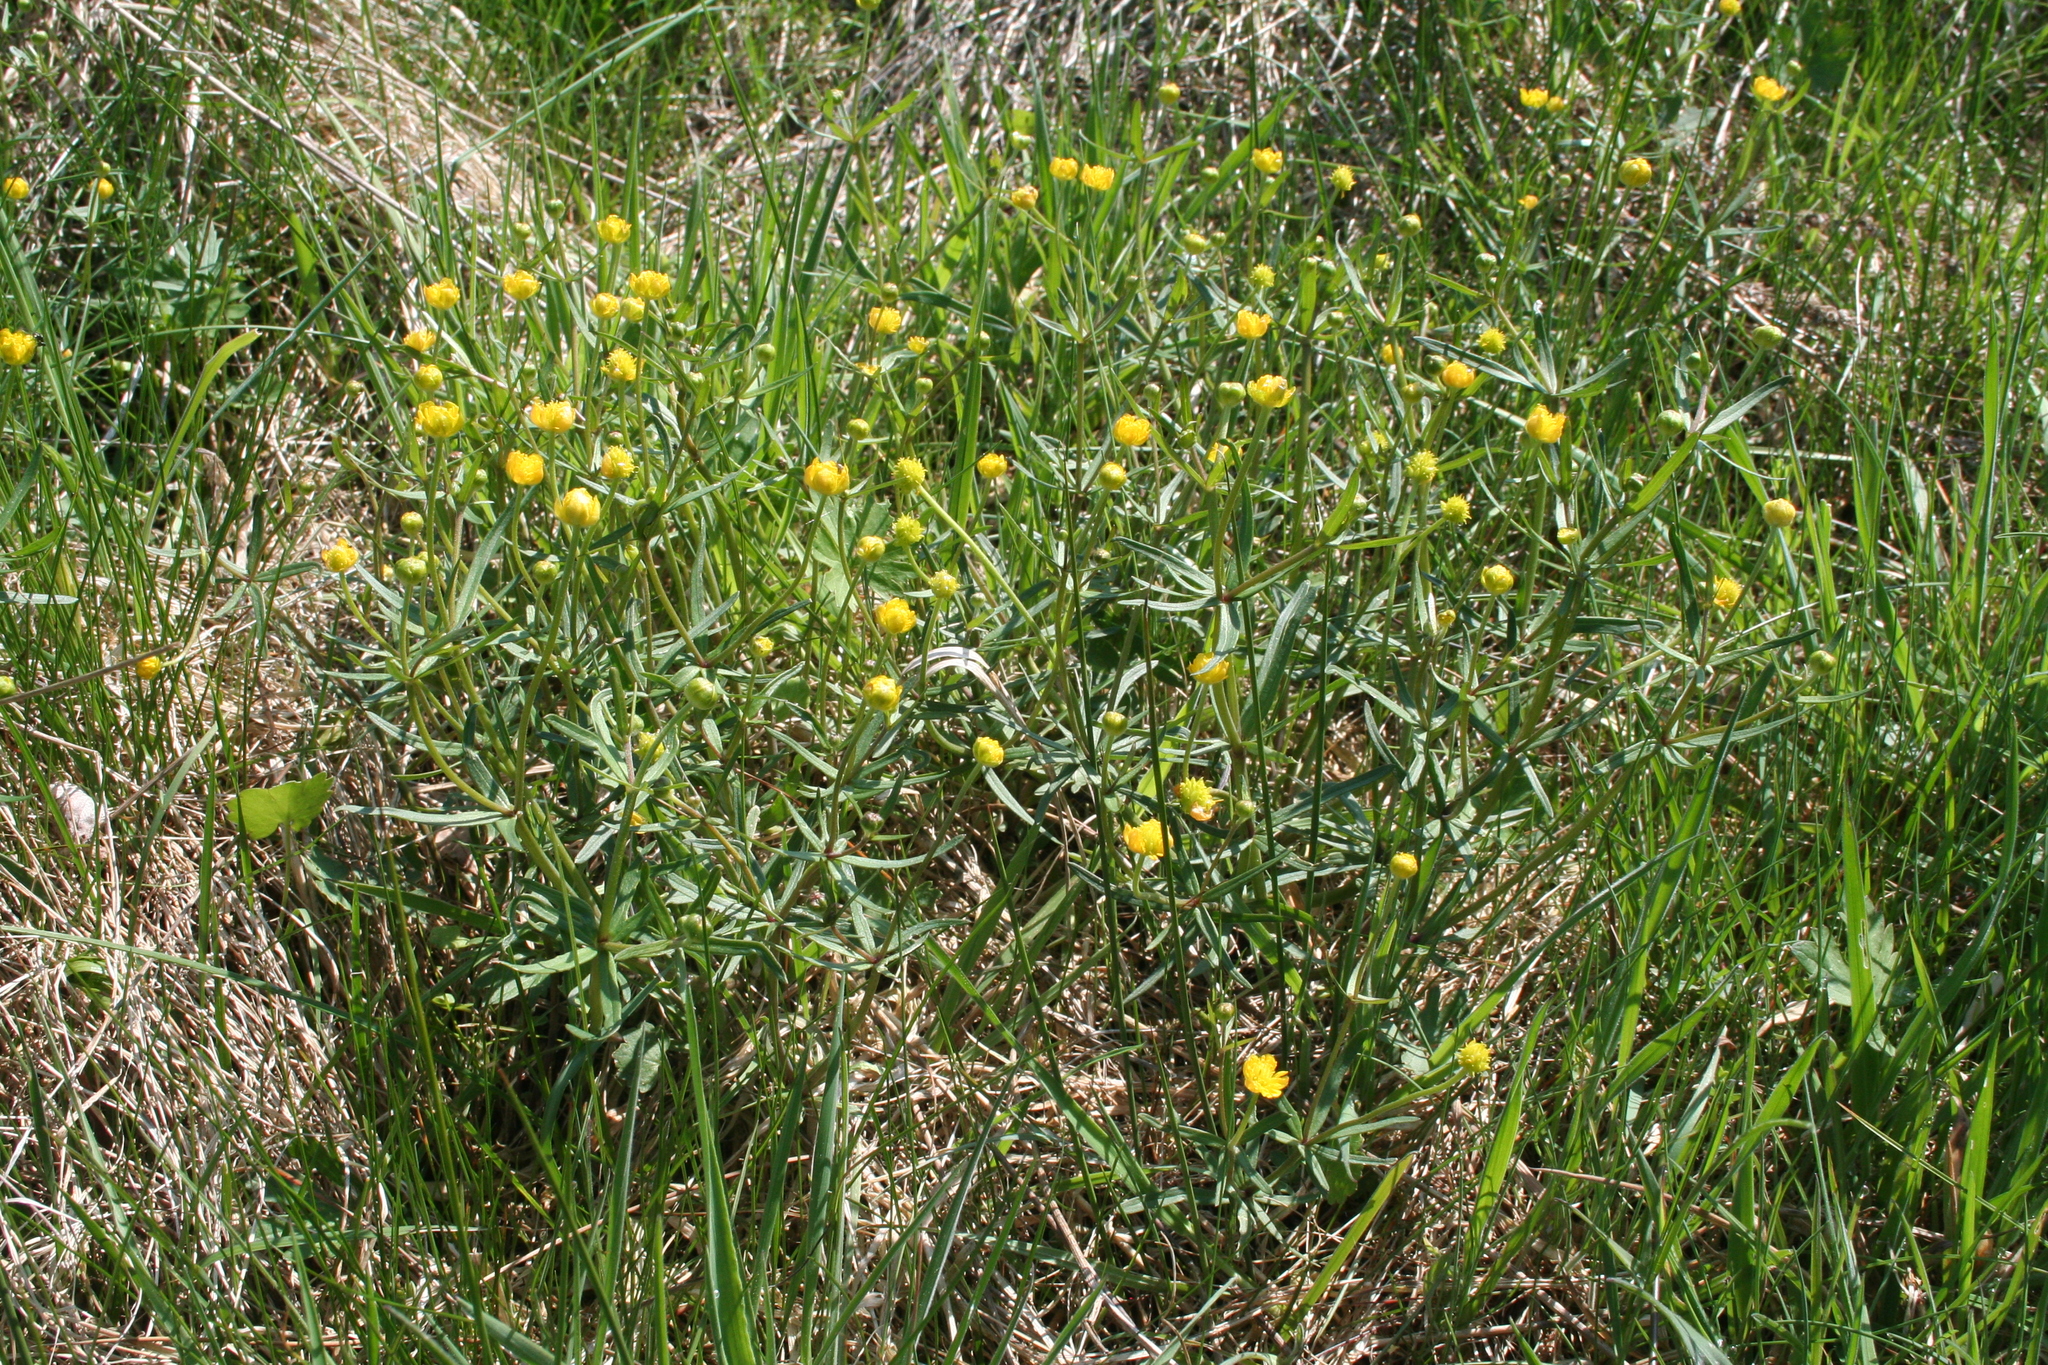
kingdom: Plantae
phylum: Tracheophyta
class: Magnoliopsida
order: Ranunculales
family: Ranunculaceae
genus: Ranunculus
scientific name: Ranunculus auricomus
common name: Goldilocks buttercup
